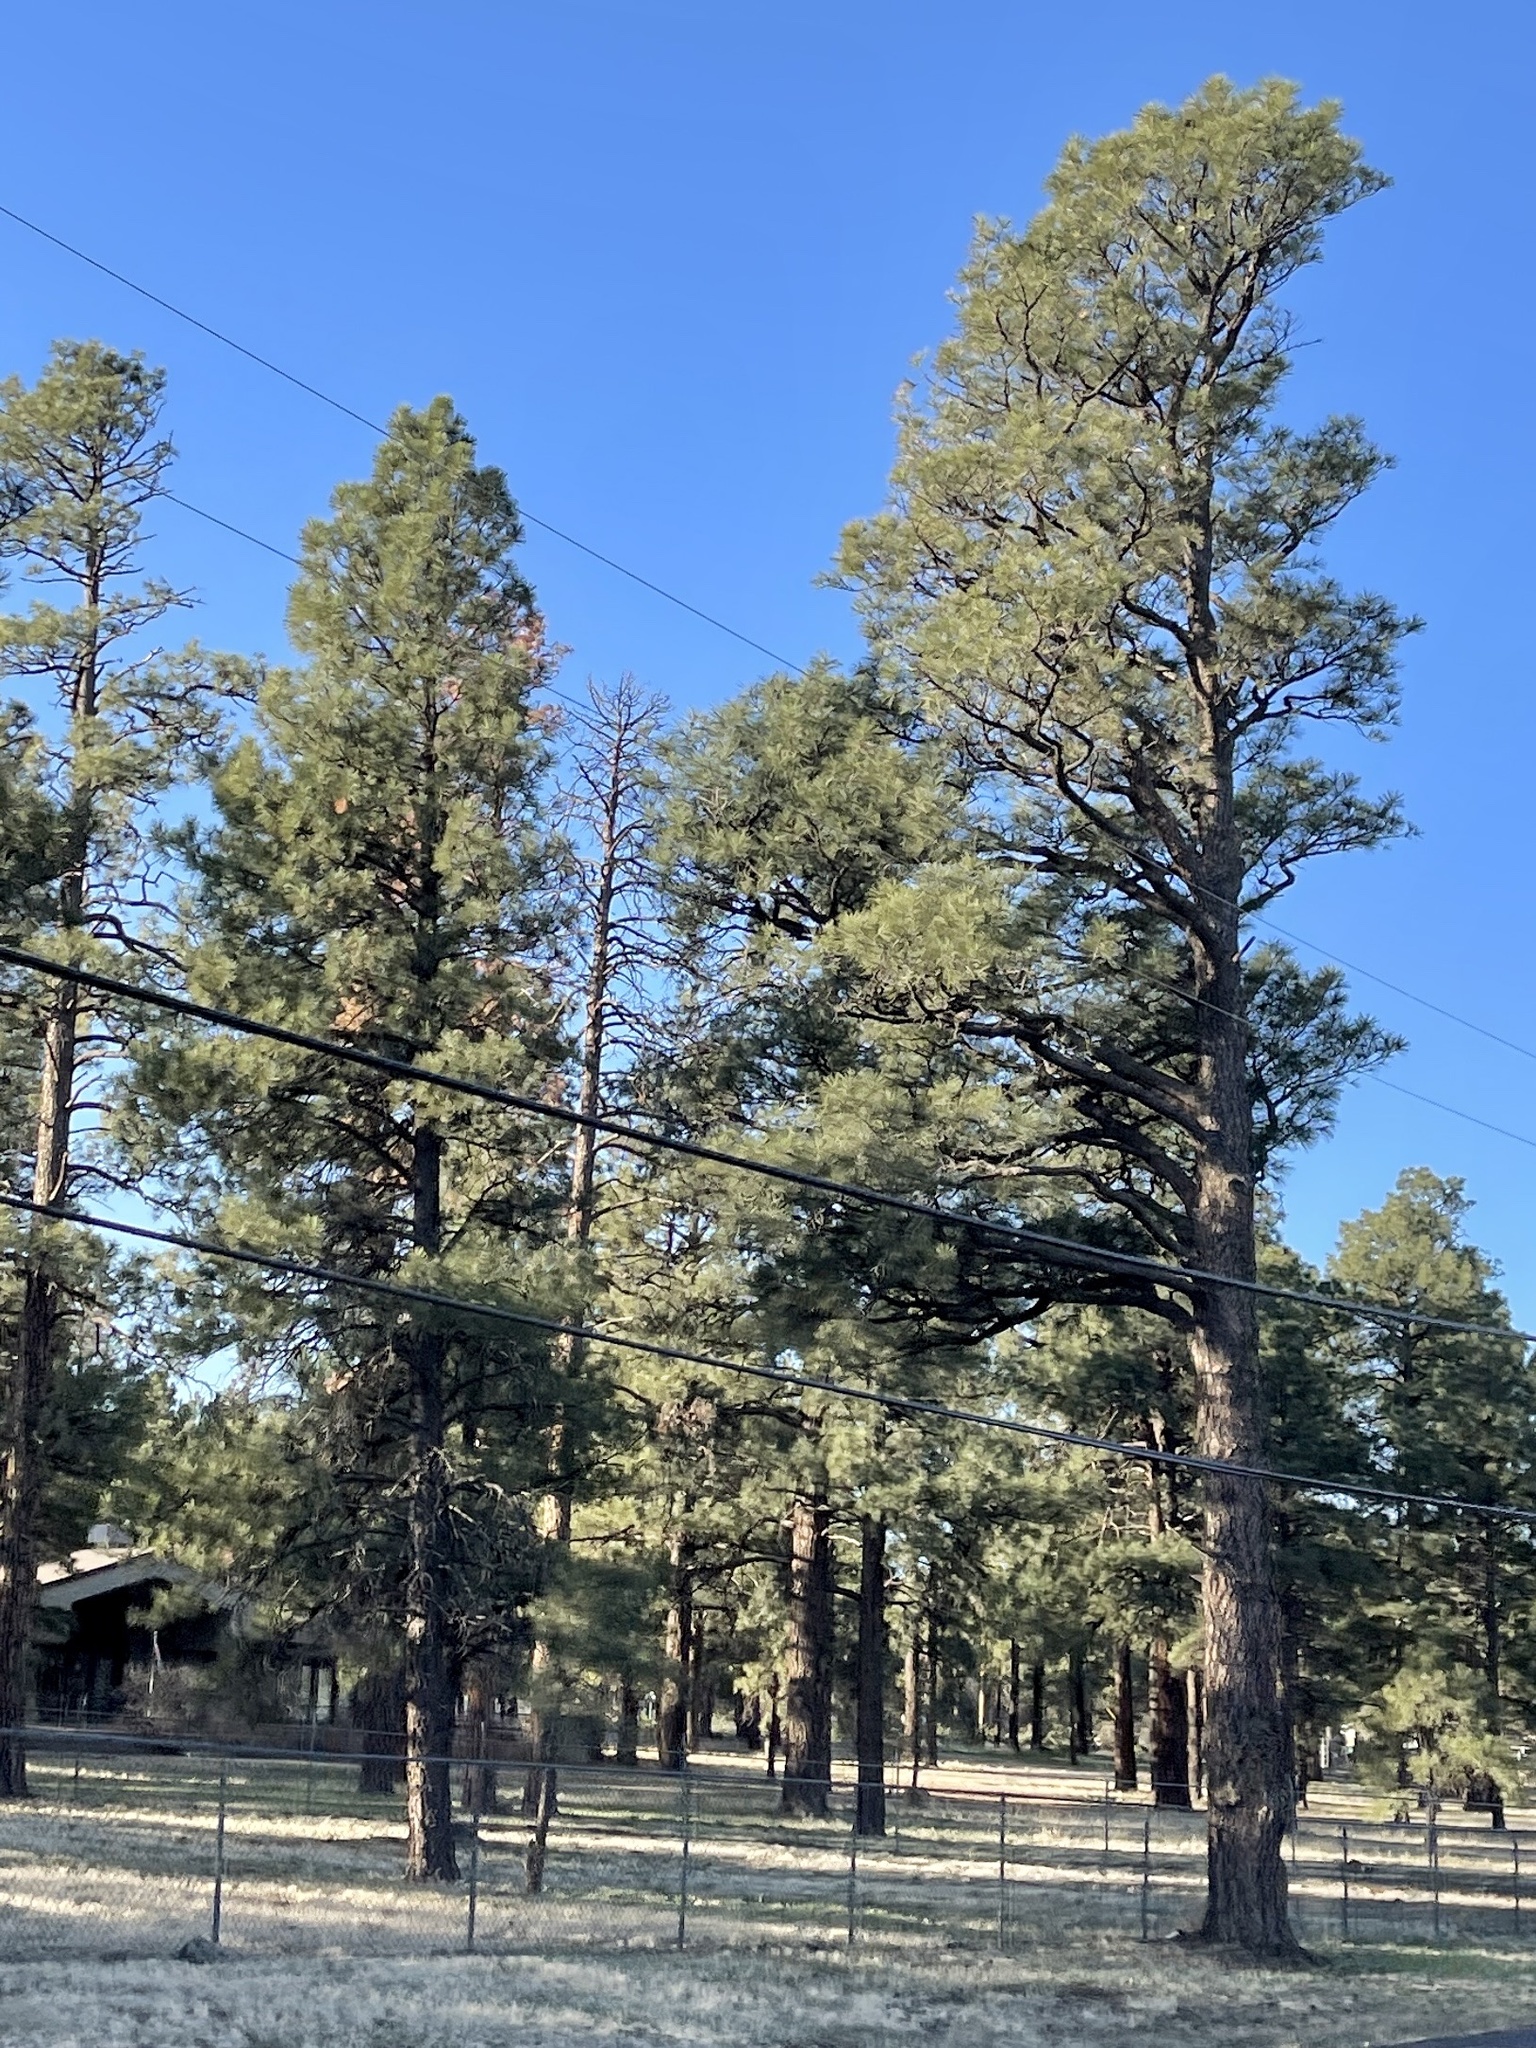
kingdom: Plantae
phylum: Tracheophyta
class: Pinopsida
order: Pinales
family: Pinaceae
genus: Pinus
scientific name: Pinus ponderosa
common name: Western yellow-pine
